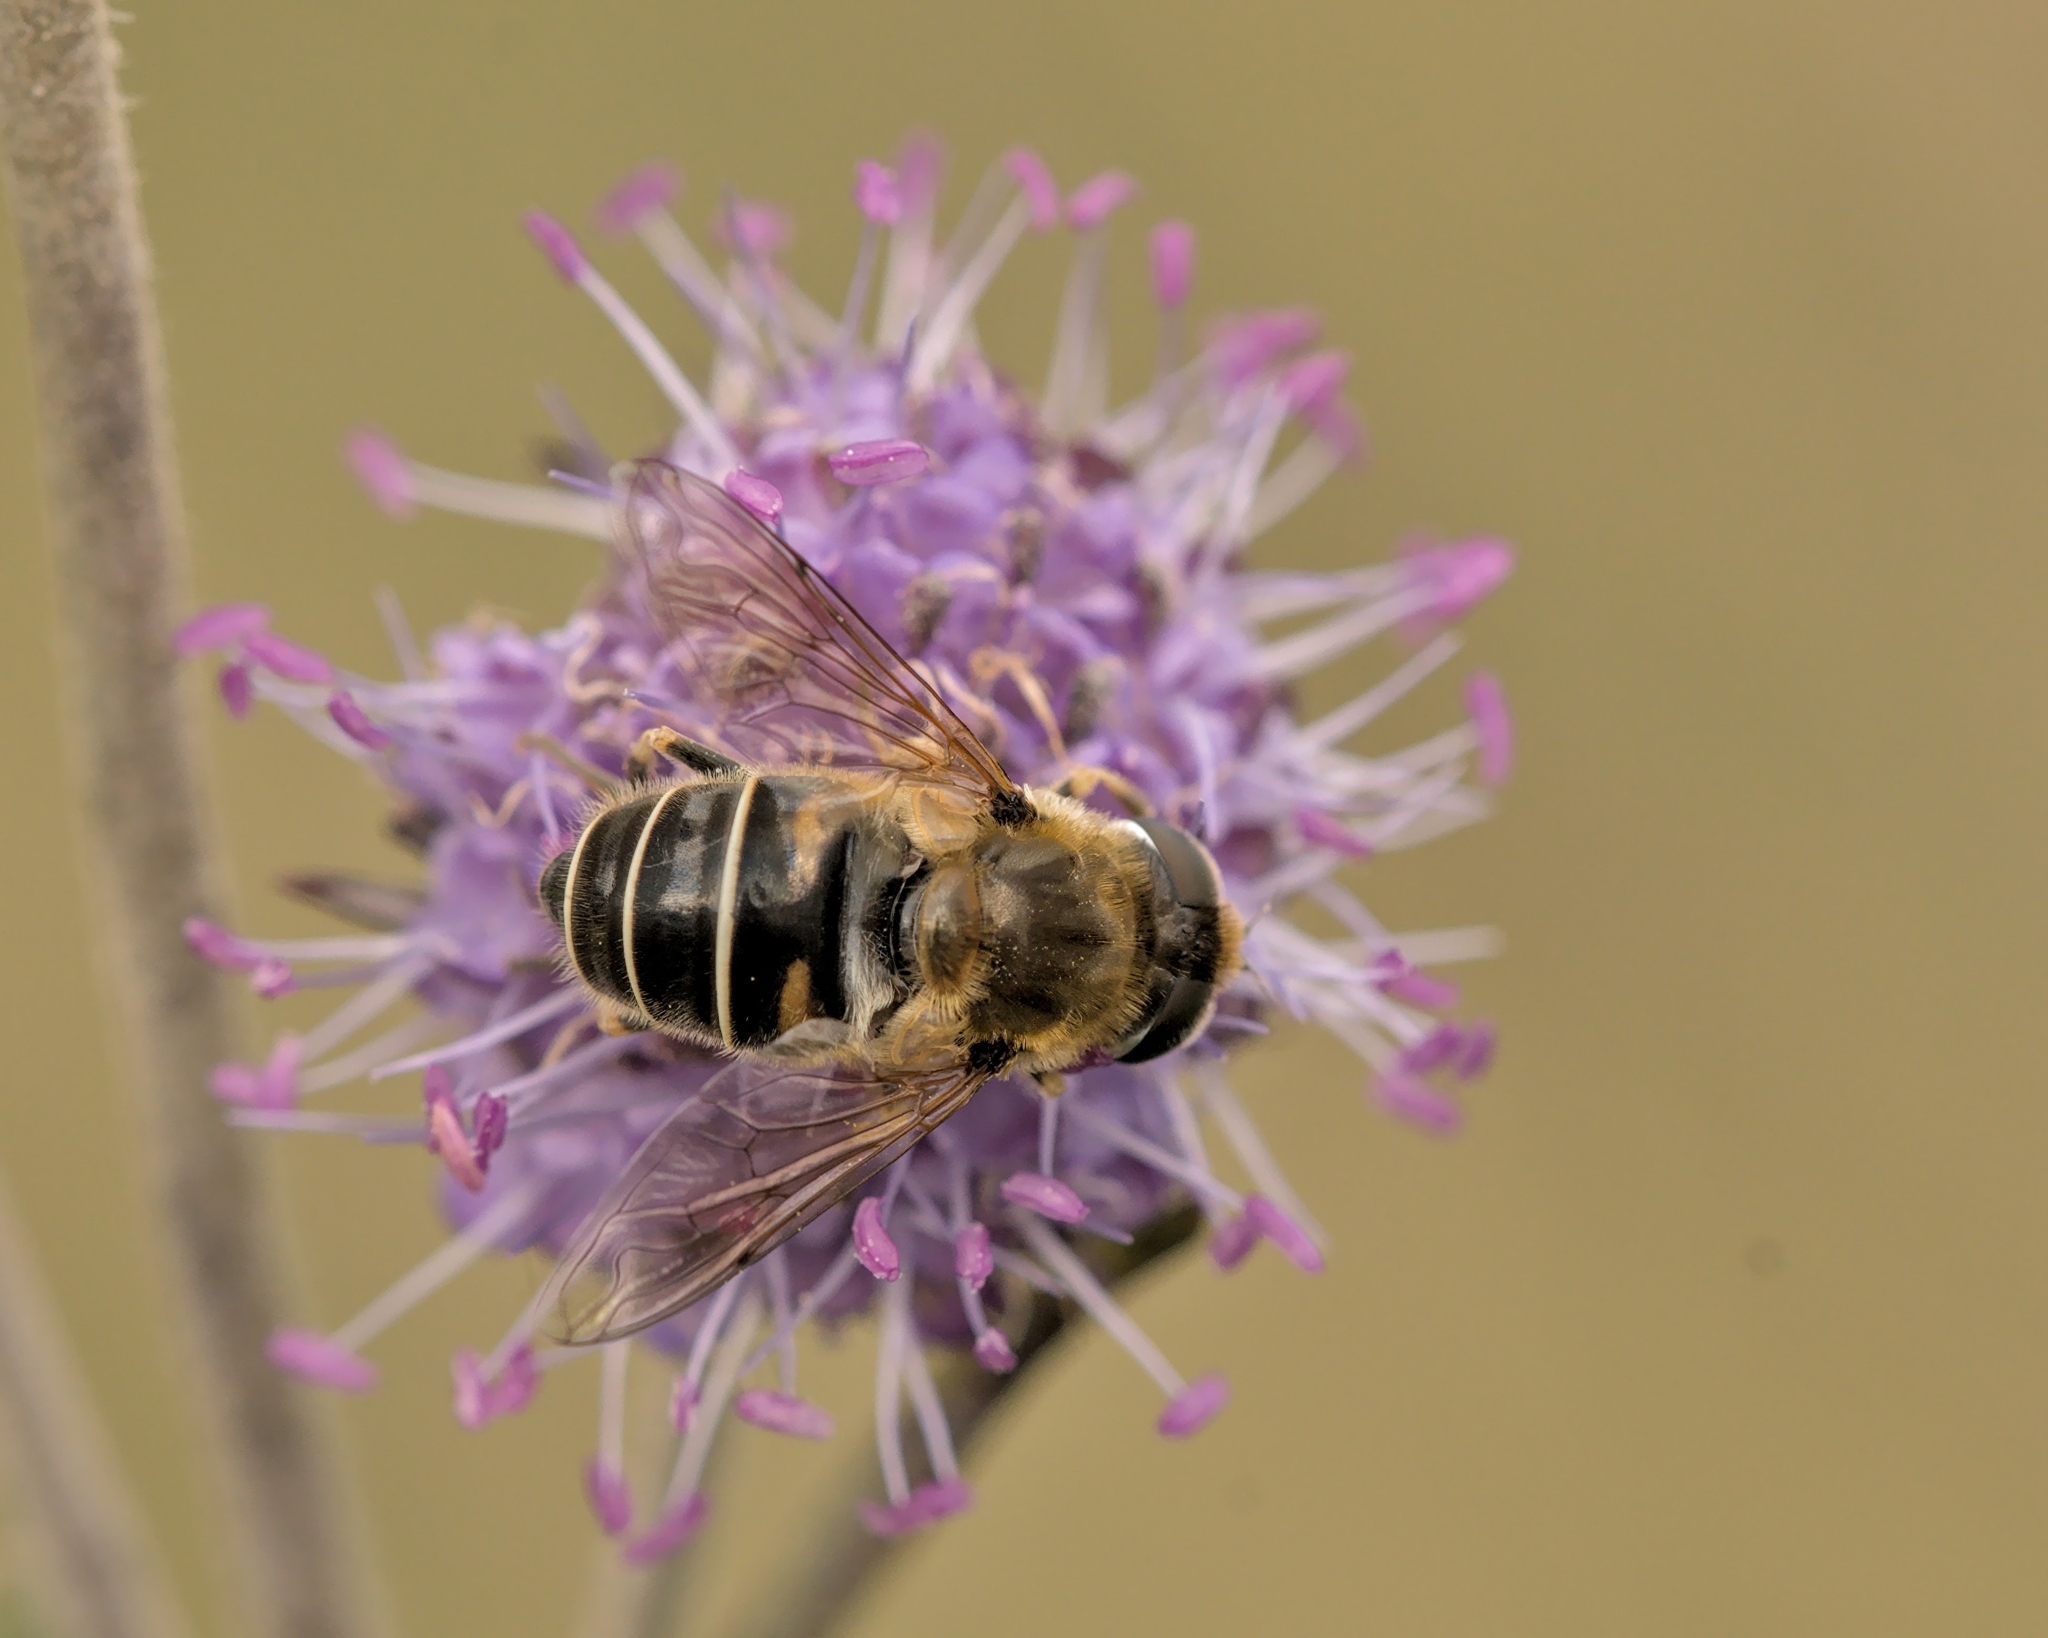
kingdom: Animalia
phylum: Arthropoda
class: Insecta
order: Diptera
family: Syrphidae
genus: Eristalis
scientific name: Eristalis nemorum
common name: Orange-spined drone fly
